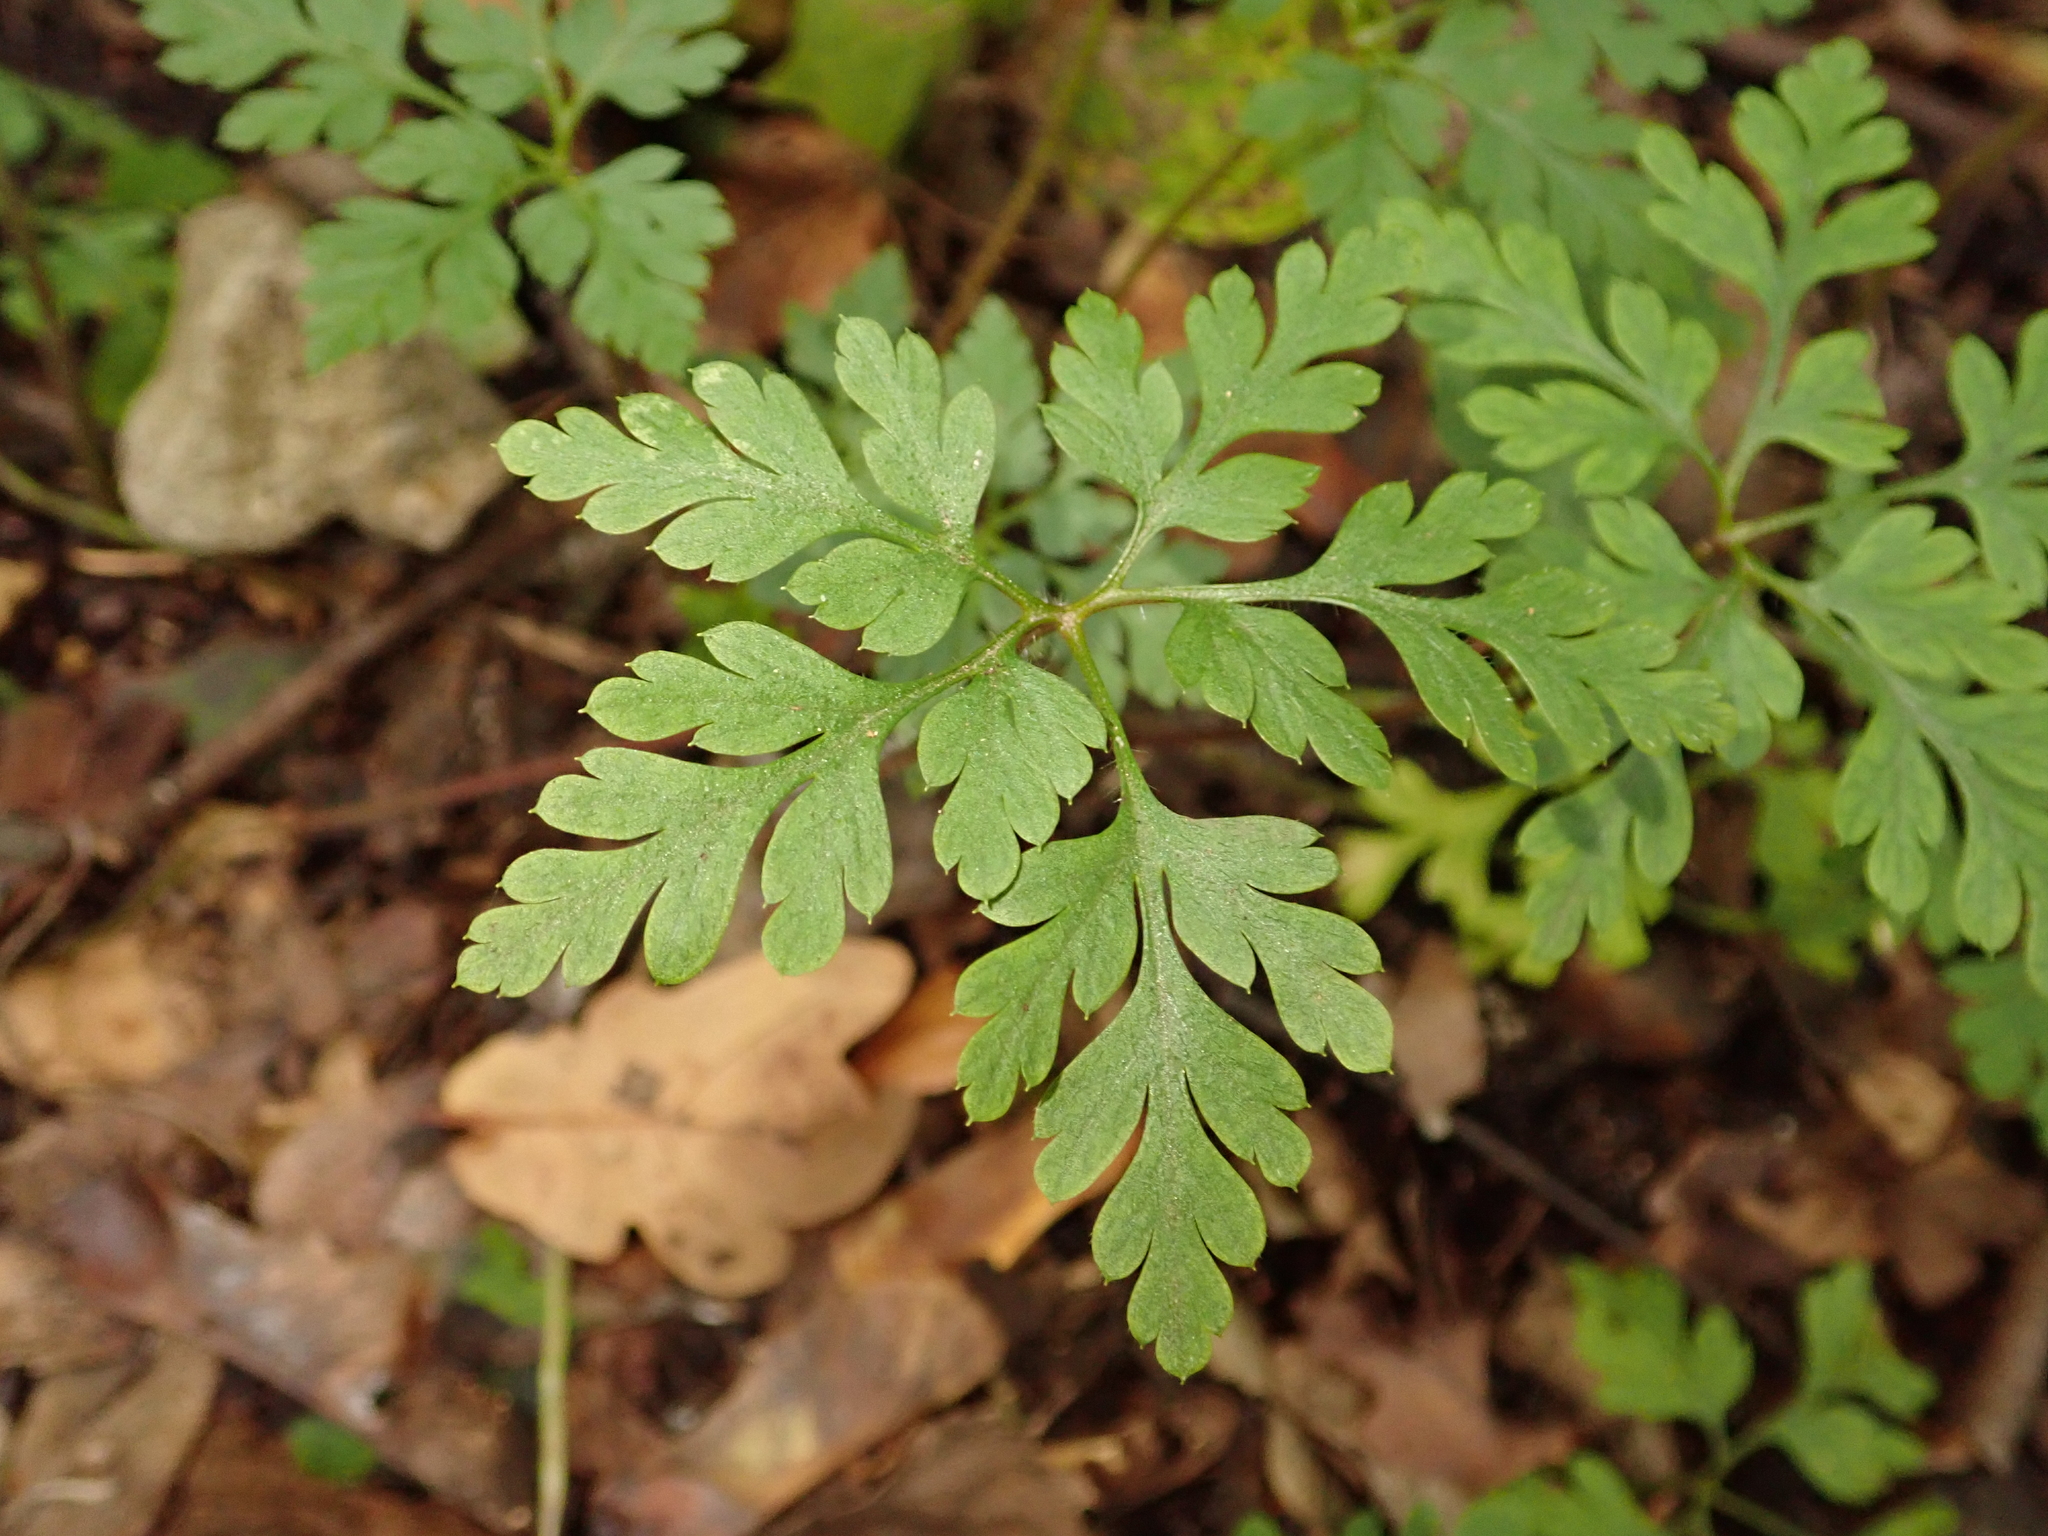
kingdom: Plantae
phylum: Tracheophyta
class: Magnoliopsida
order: Geraniales
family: Geraniaceae
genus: Geranium
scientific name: Geranium robertianum
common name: Herb-robert
